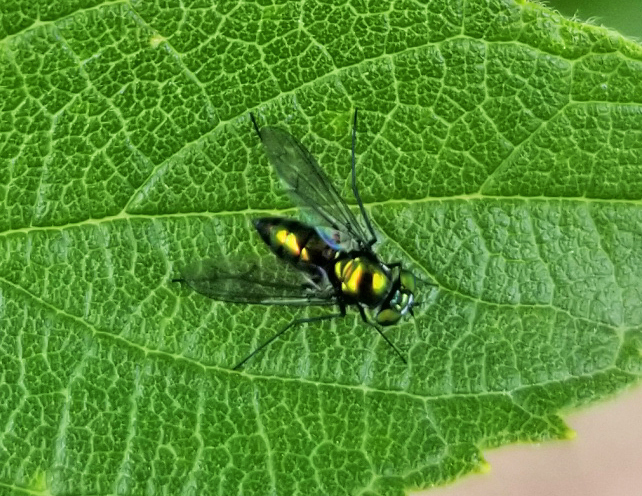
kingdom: Animalia
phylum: Arthropoda
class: Insecta
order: Diptera
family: Dolichopodidae
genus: Condylostylus
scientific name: Condylostylus patibulatus
